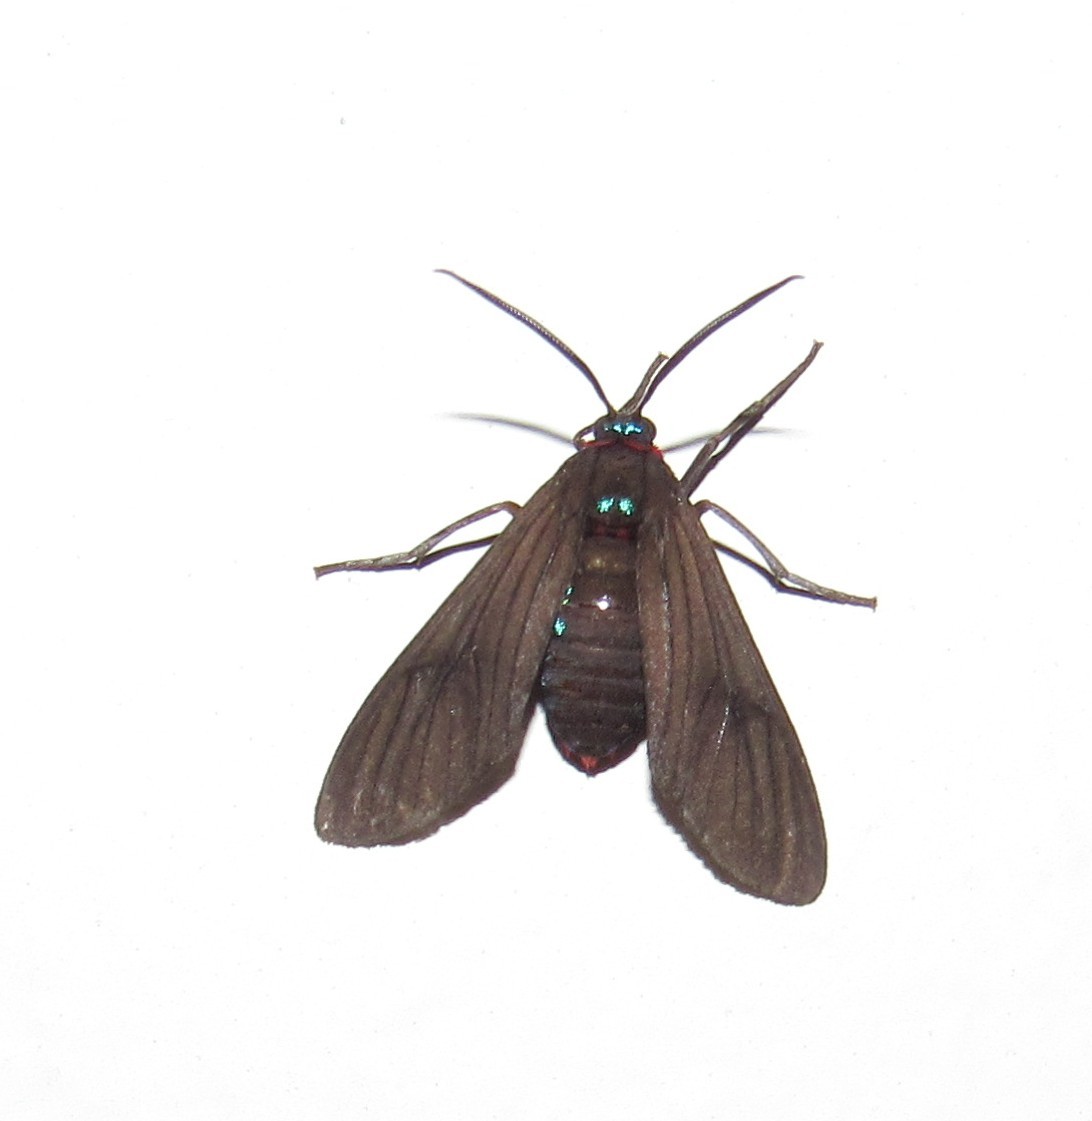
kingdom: Animalia
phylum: Arthropoda
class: Insecta
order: Lepidoptera
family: Erebidae
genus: Saurita
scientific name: Saurita cassandra
